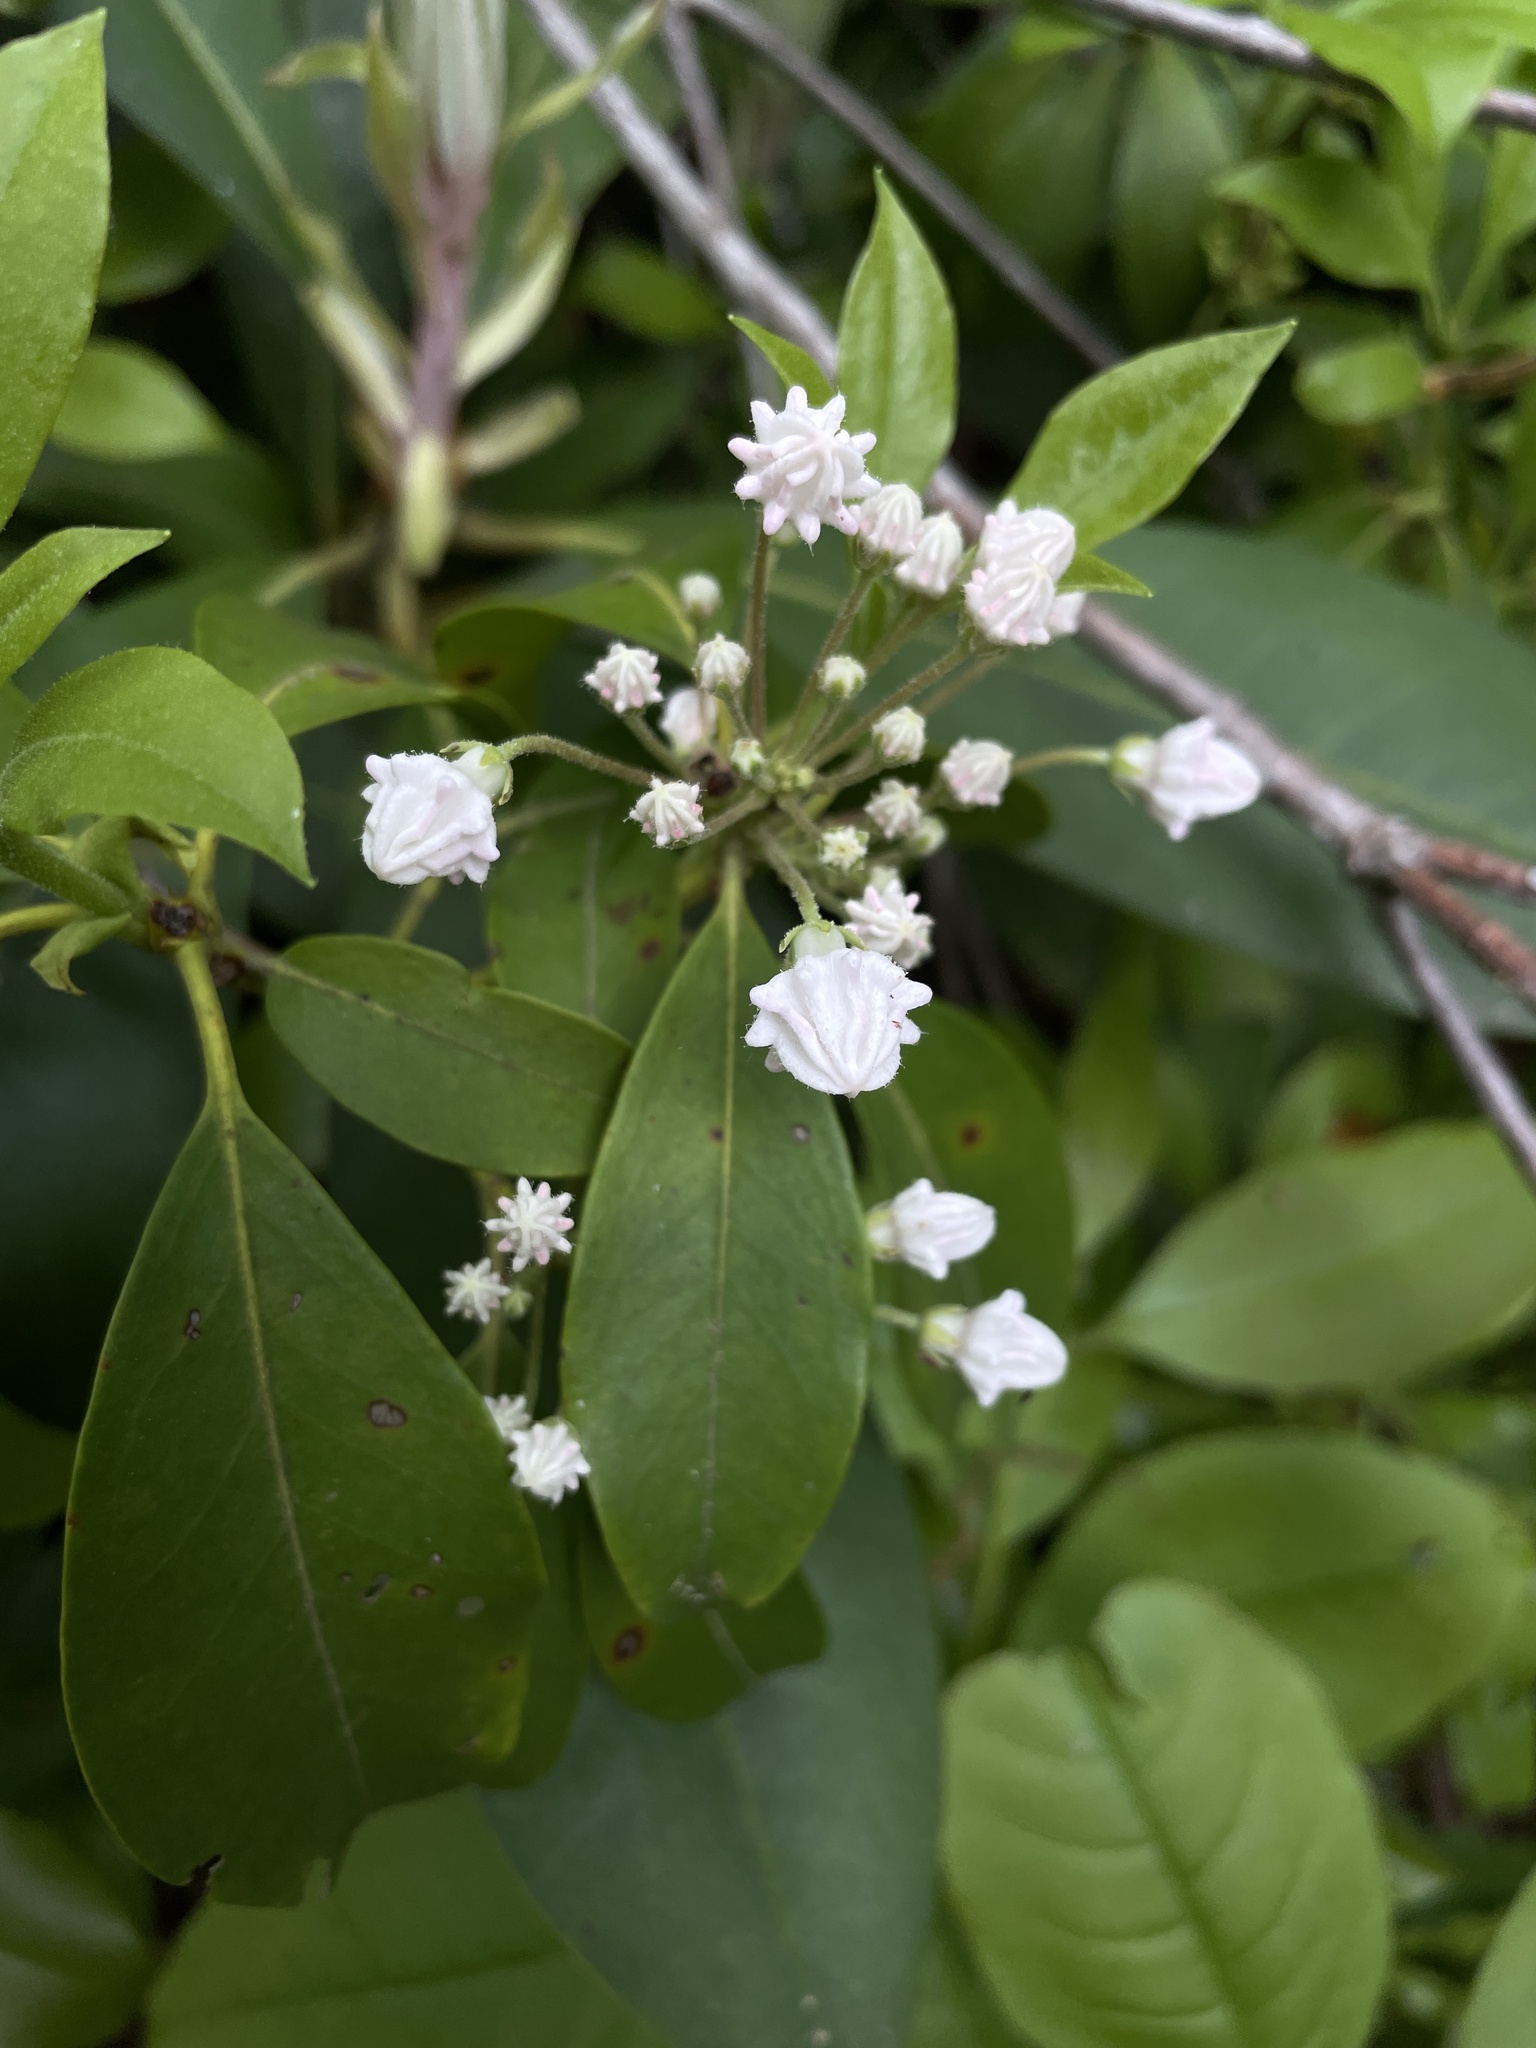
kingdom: Plantae
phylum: Tracheophyta
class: Magnoliopsida
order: Ericales
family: Ericaceae
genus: Kalmia
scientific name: Kalmia latifolia
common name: Mountain-laurel
